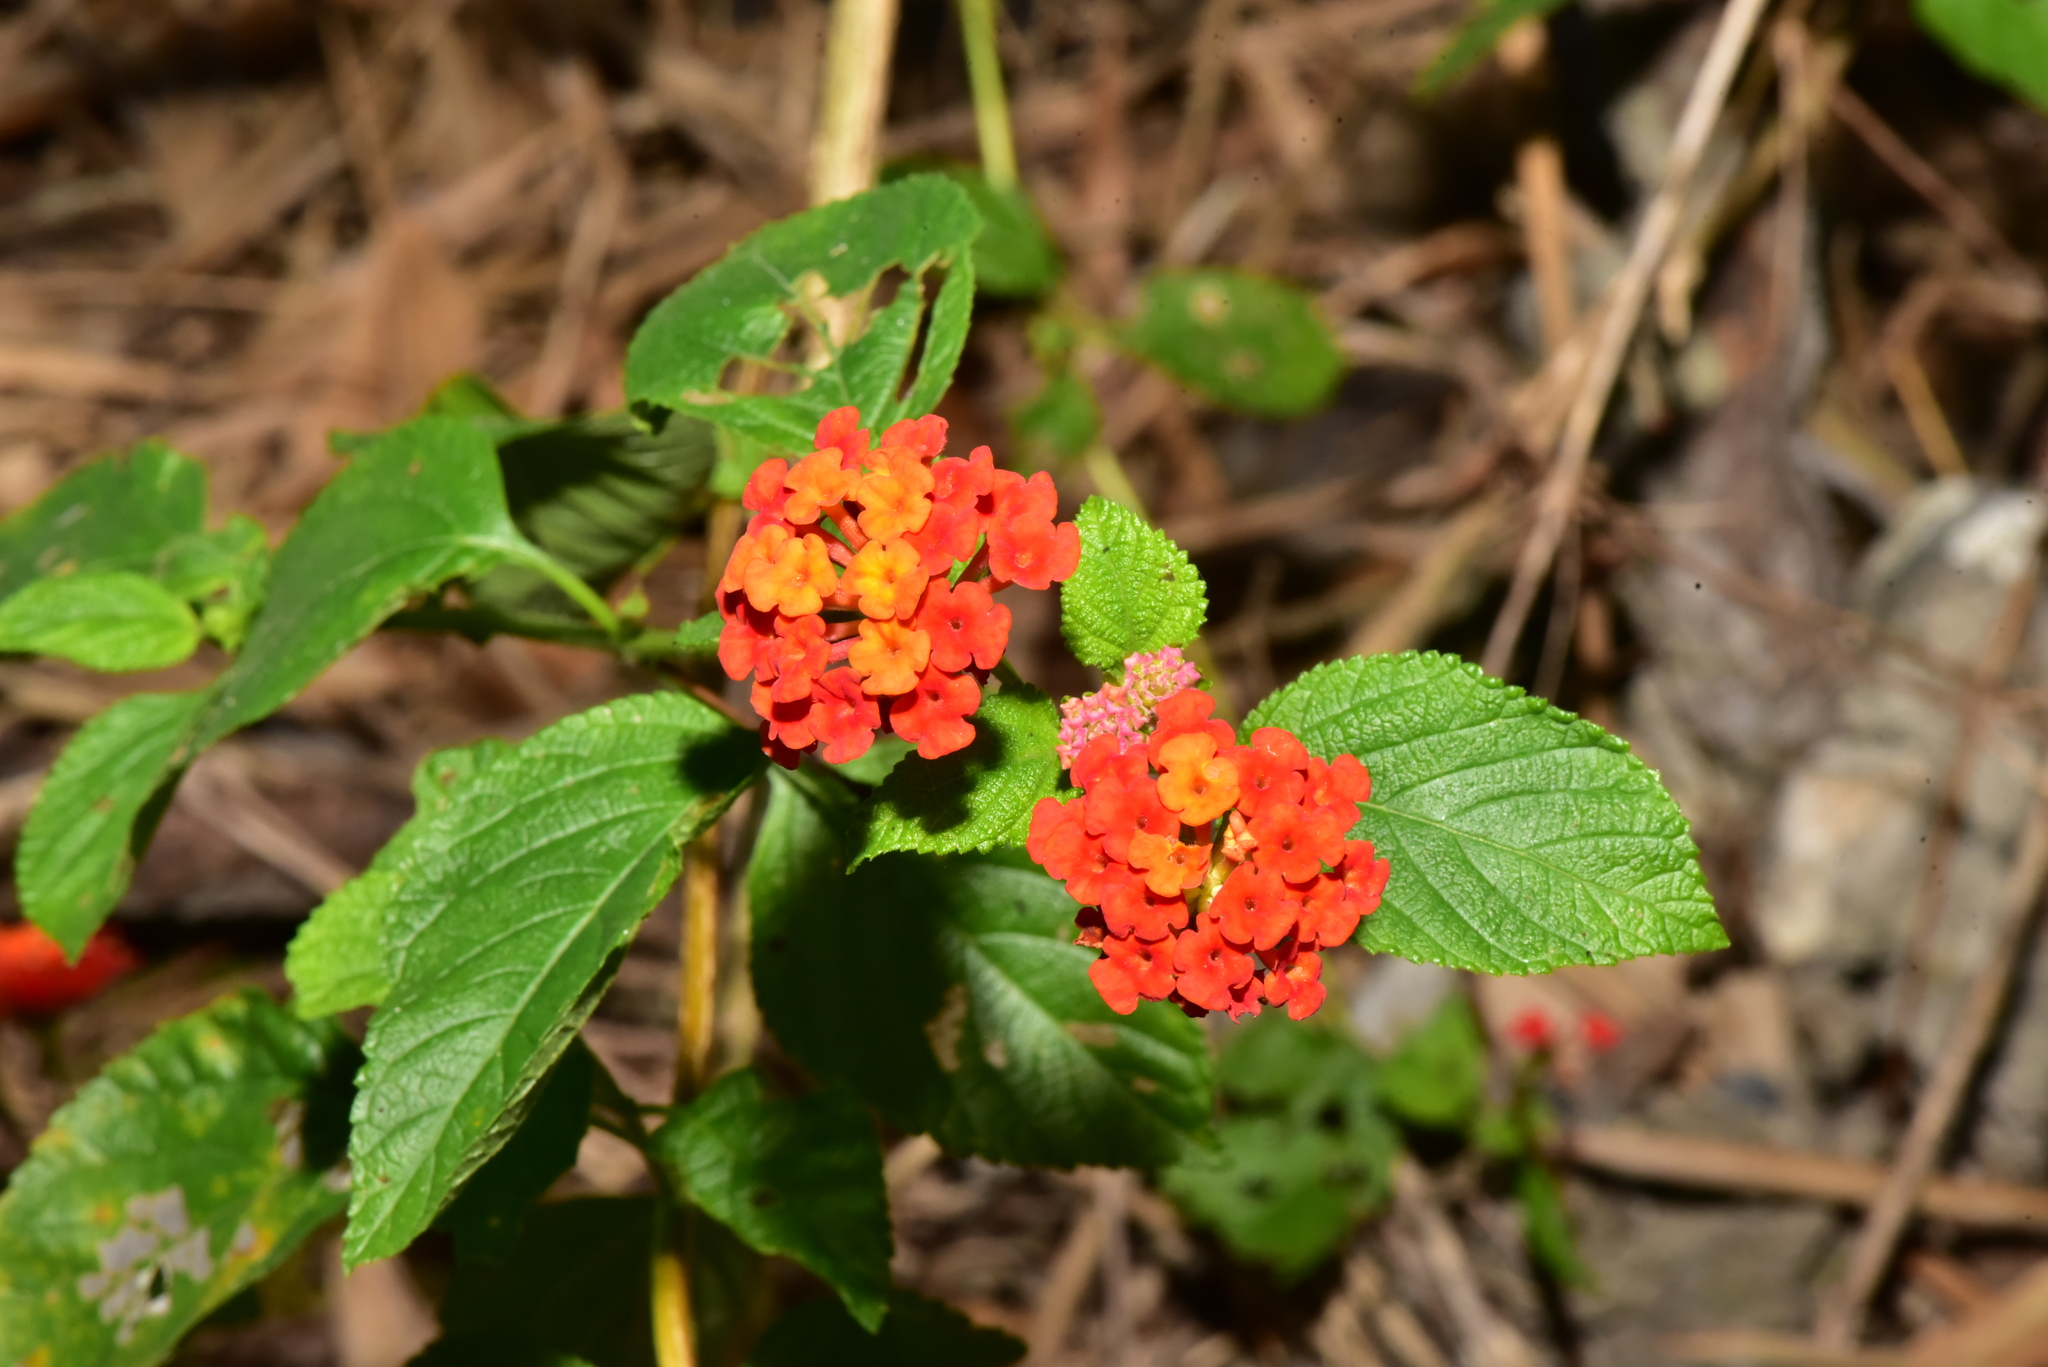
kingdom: Plantae
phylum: Tracheophyta
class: Magnoliopsida
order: Lamiales
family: Verbenaceae
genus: Lantana
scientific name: Lantana camara
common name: Lantana
